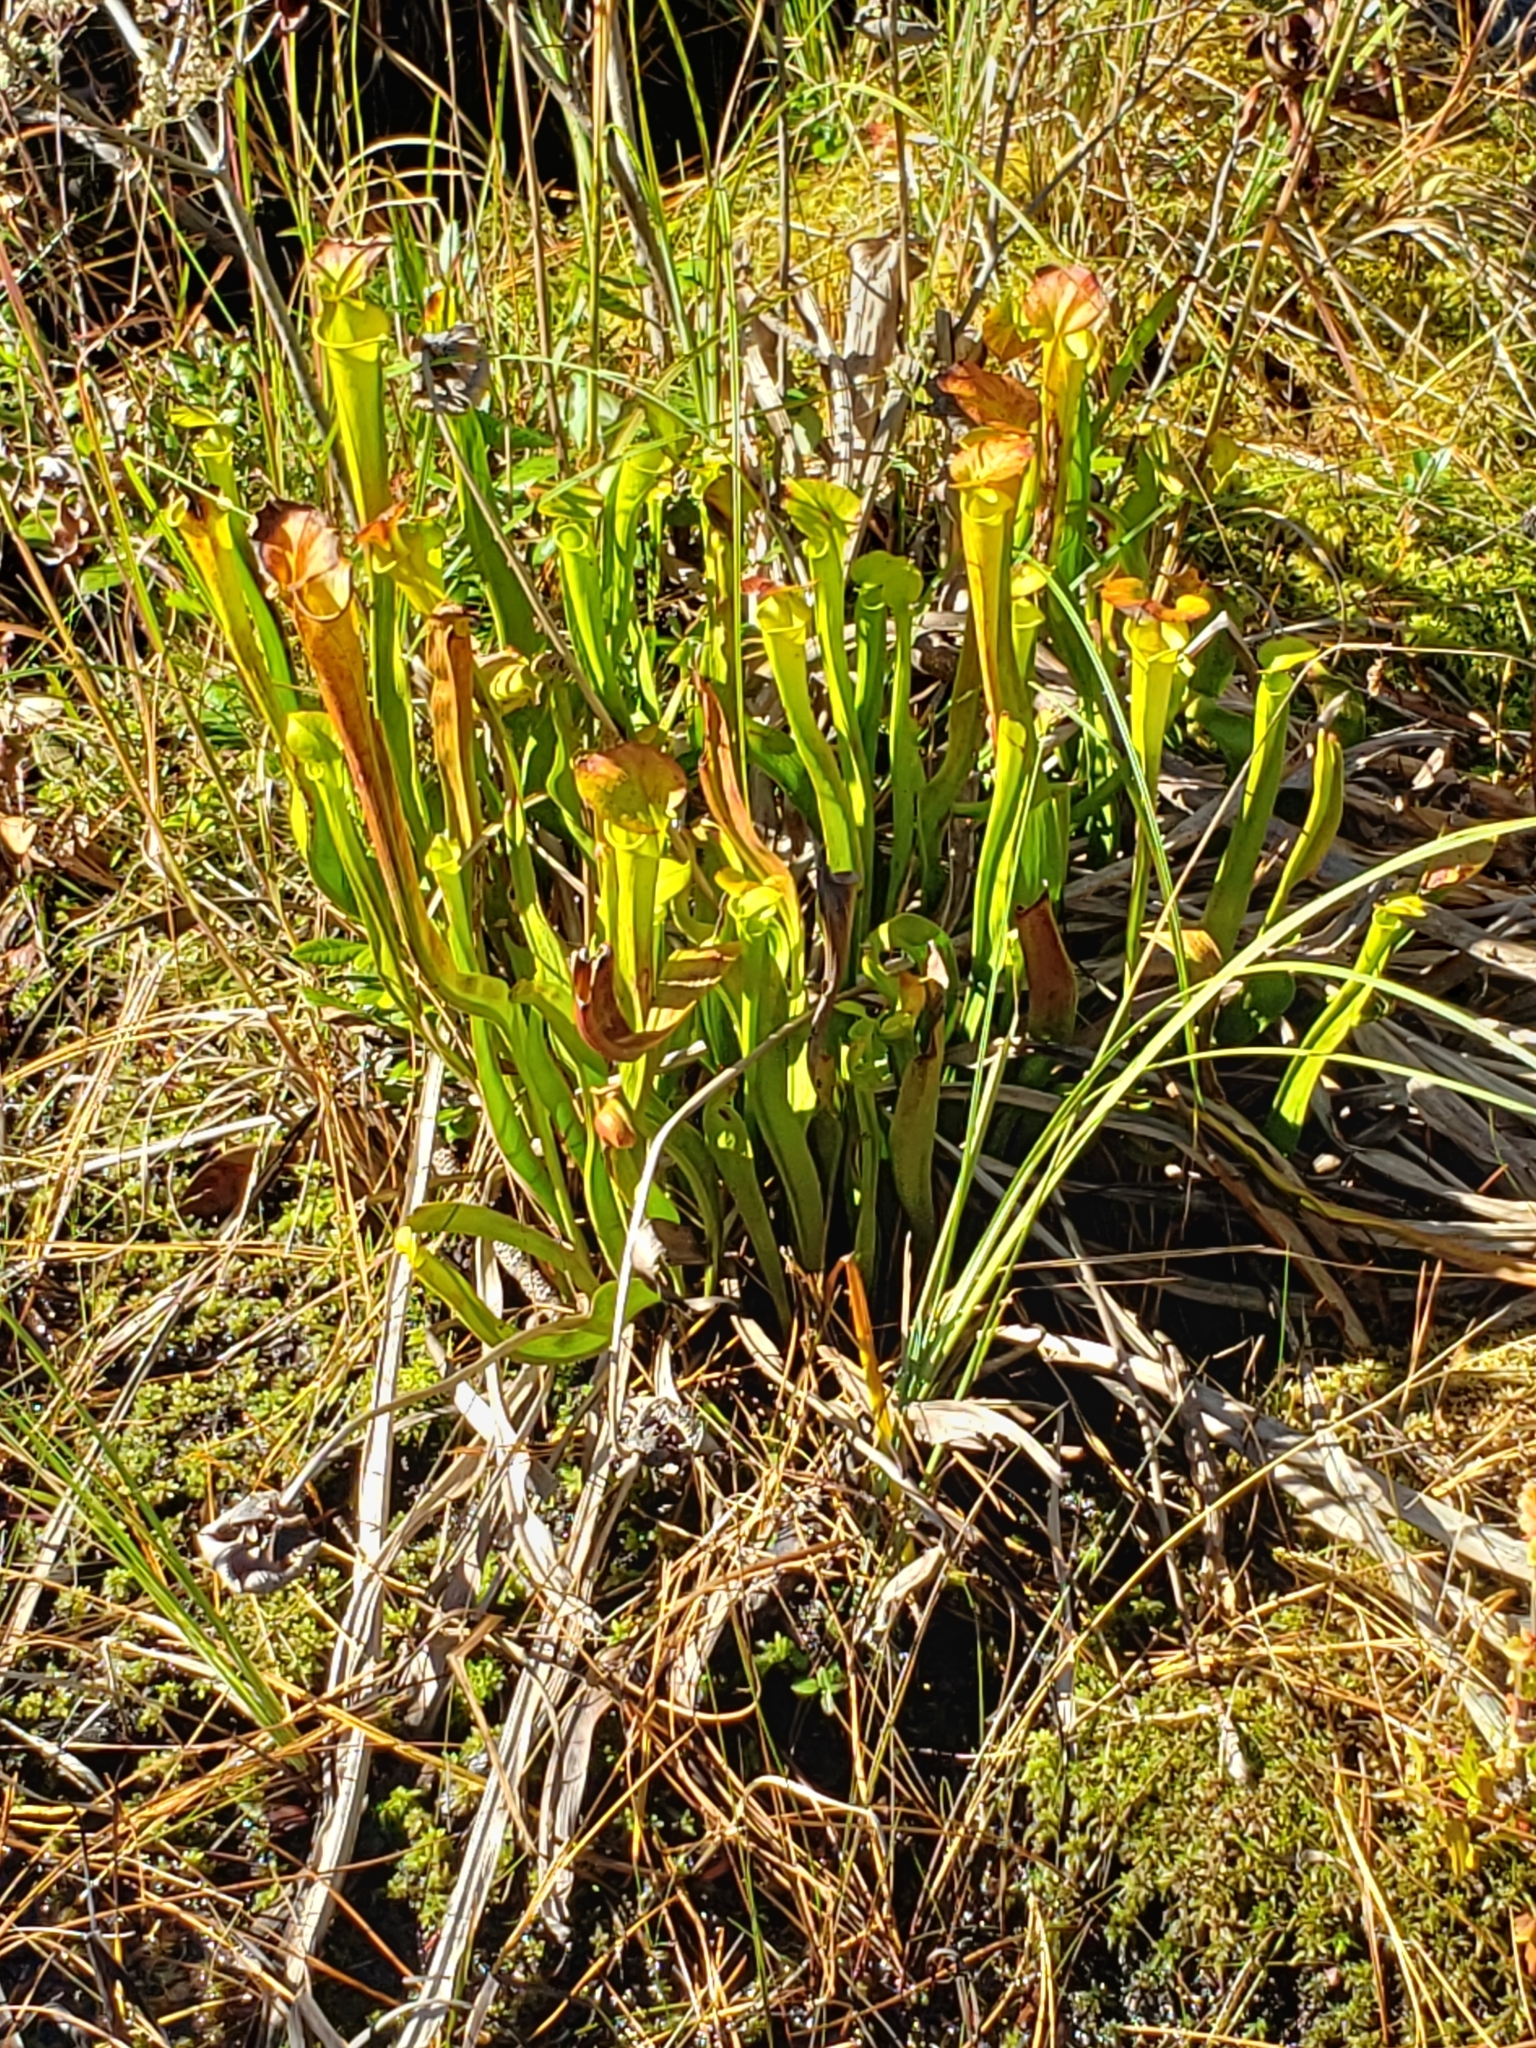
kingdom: Plantae
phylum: Tracheophyta
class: Magnoliopsida
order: Ericales
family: Sarraceniaceae
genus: Sarracenia
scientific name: Sarracenia flava
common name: Trumpets
